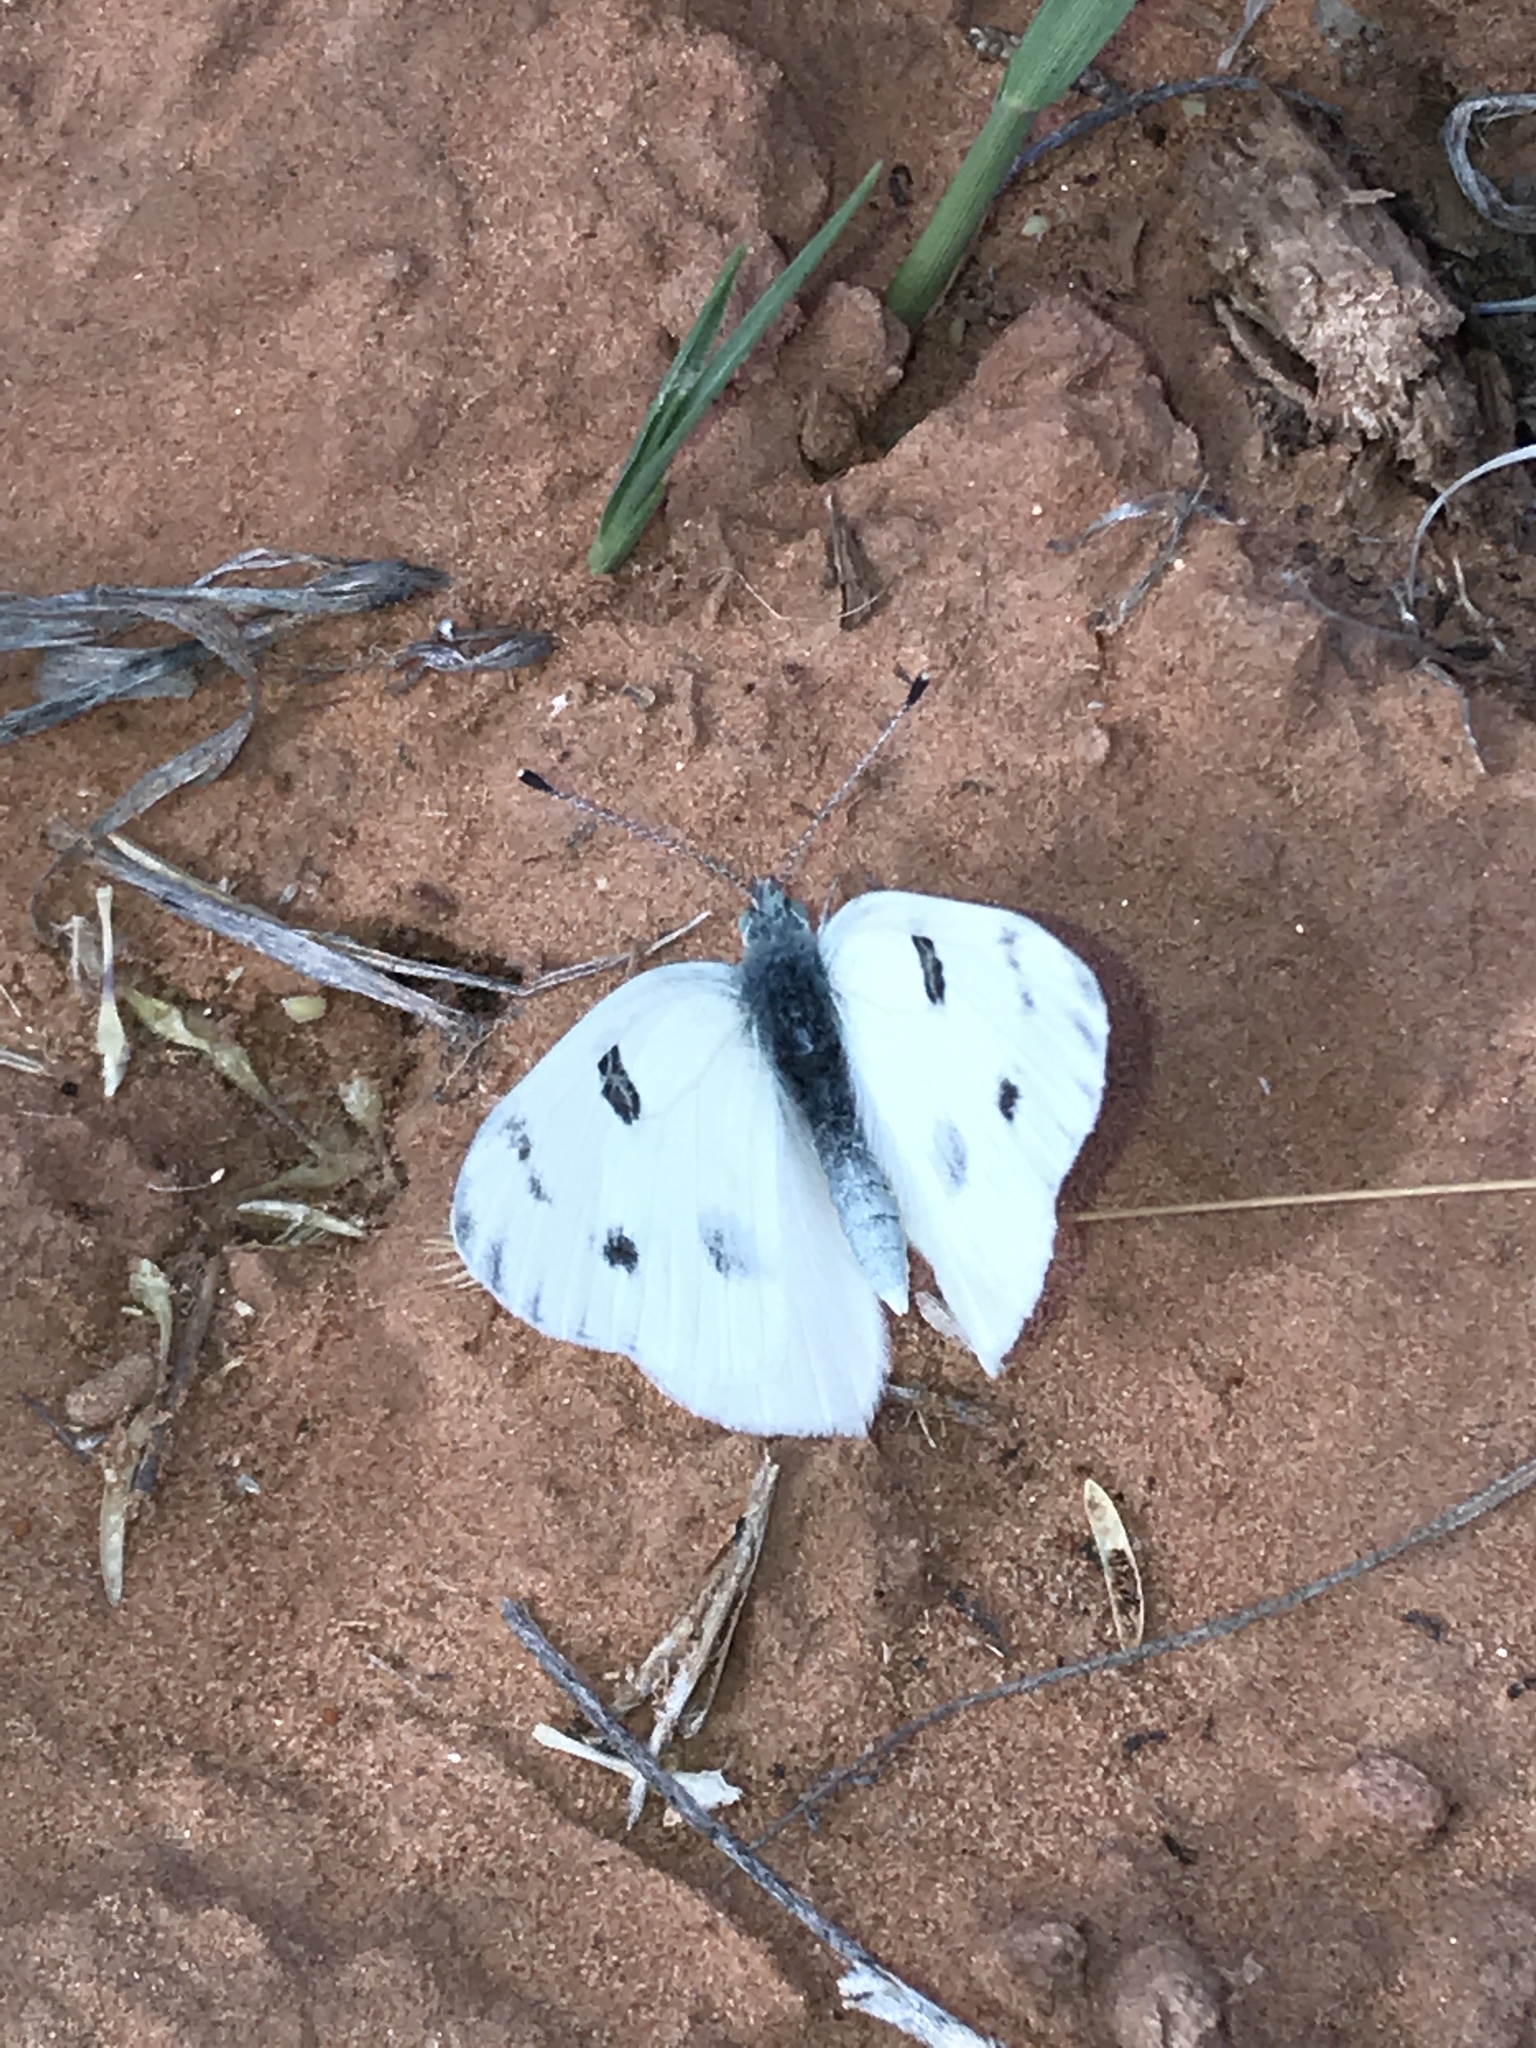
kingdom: Animalia
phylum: Arthropoda
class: Insecta
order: Lepidoptera
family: Pieridae
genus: Pontia
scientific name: Pontia protodice
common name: Checkered white
